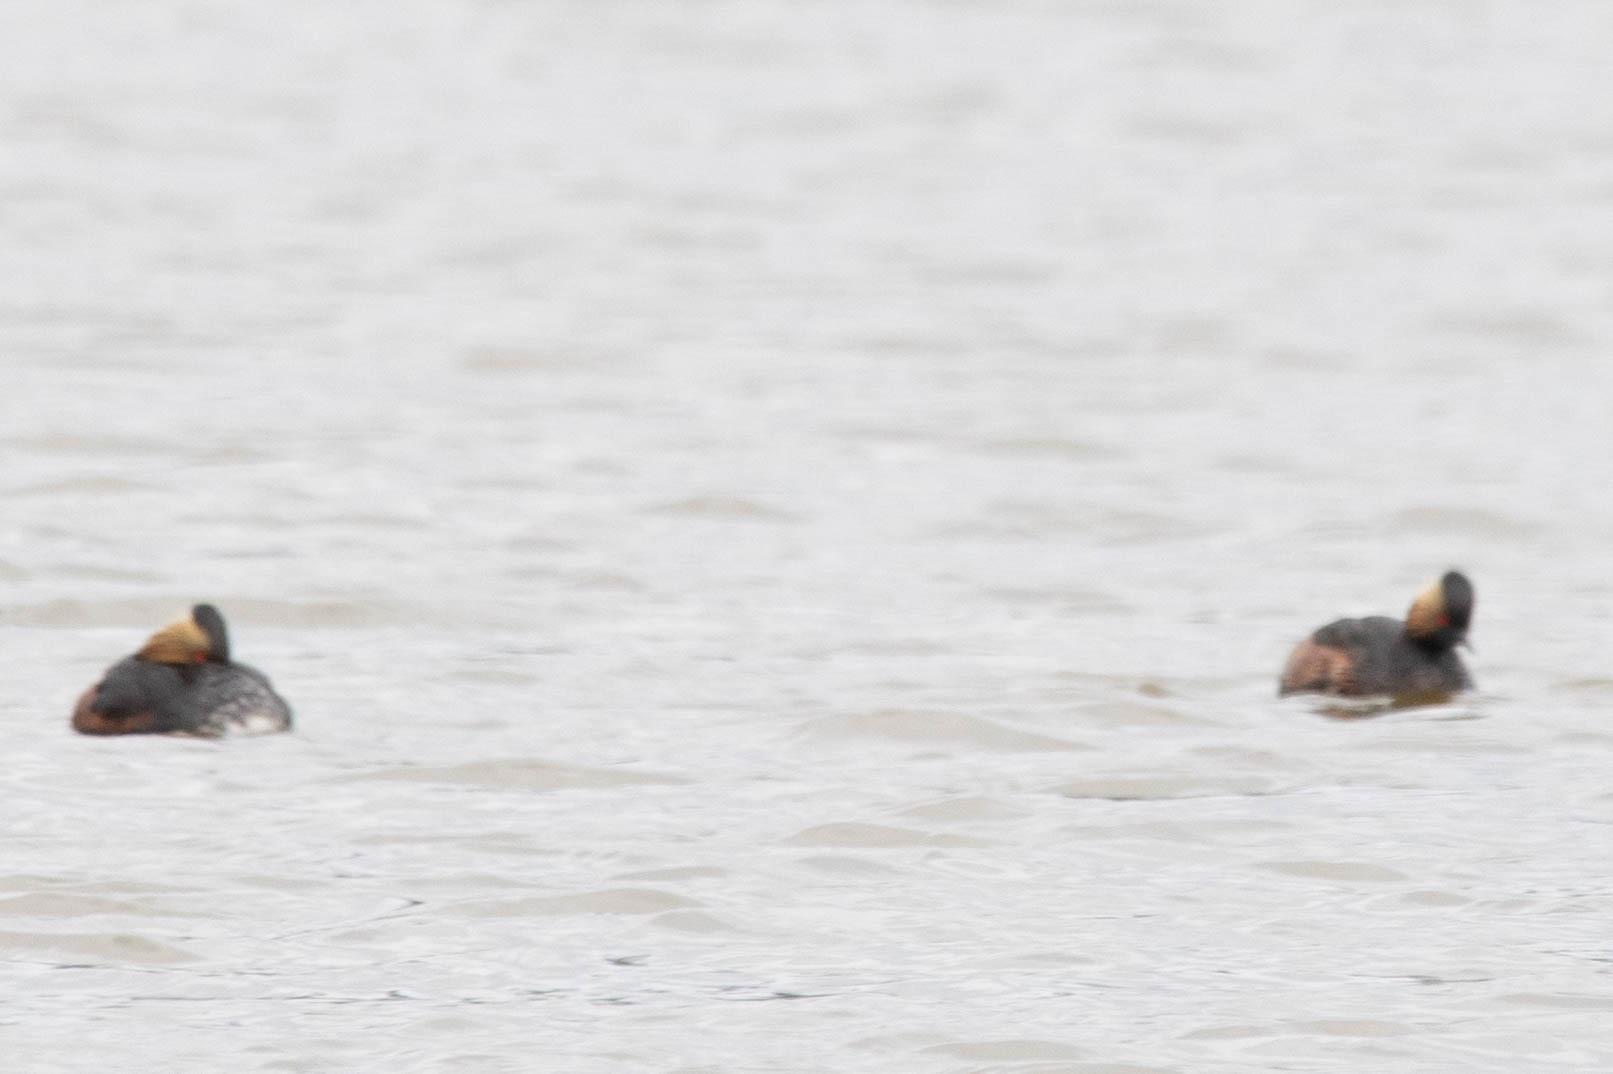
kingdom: Animalia
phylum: Chordata
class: Aves
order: Podicipediformes
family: Podicipedidae
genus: Podiceps
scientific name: Podiceps nigricollis
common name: Black-necked grebe
